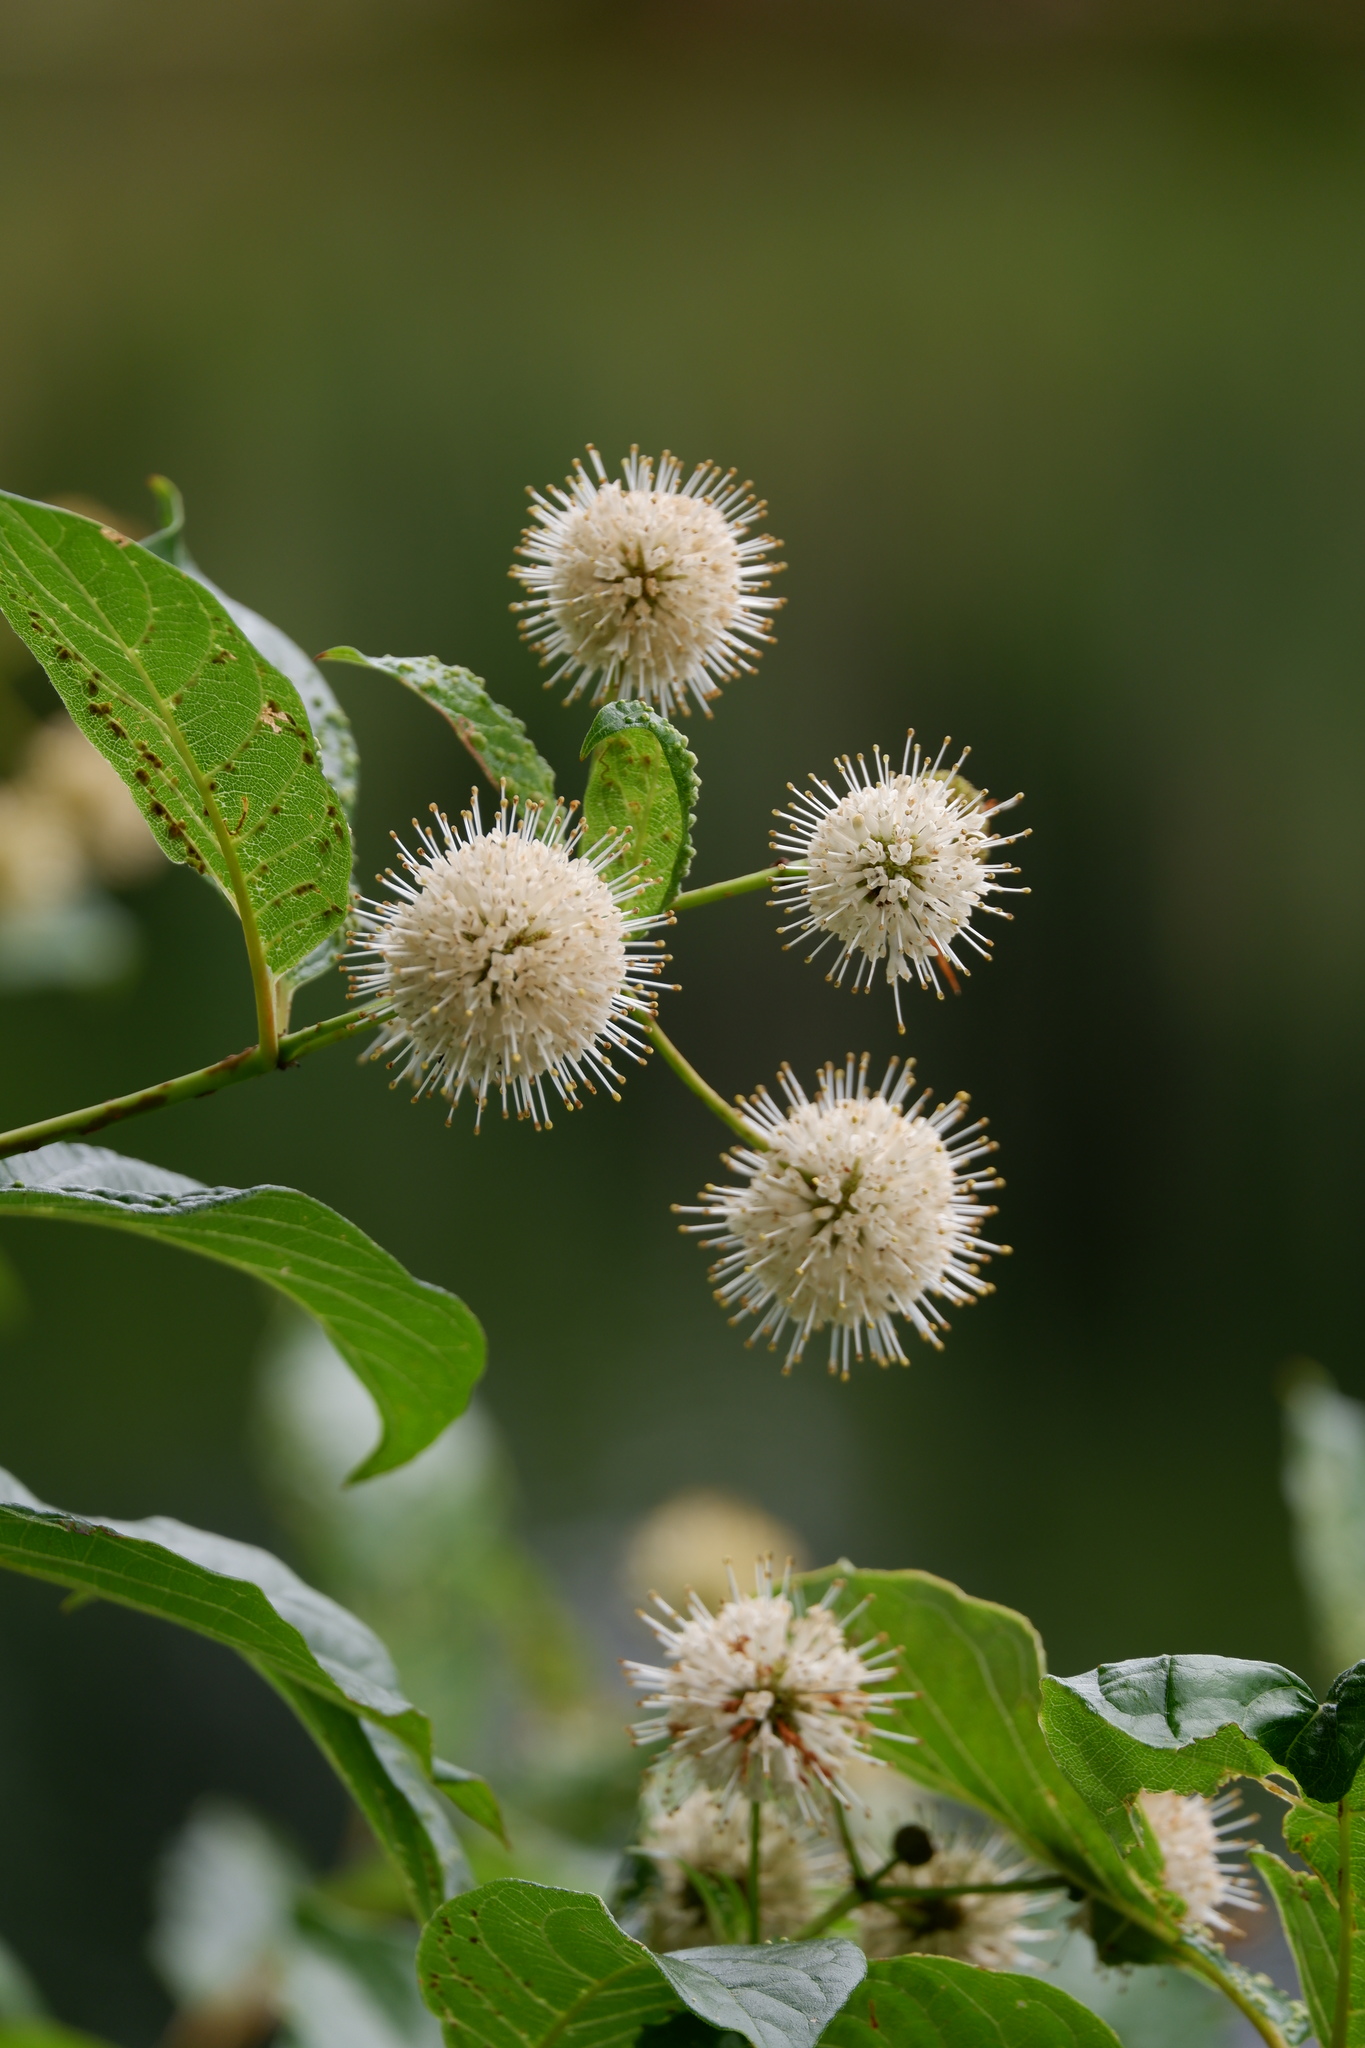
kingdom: Plantae
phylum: Tracheophyta
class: Magnoliopsida
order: Gentianales
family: Rubiaceae
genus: Cephalanthus
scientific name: Cephalanthus occidentalis
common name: Button-willow
